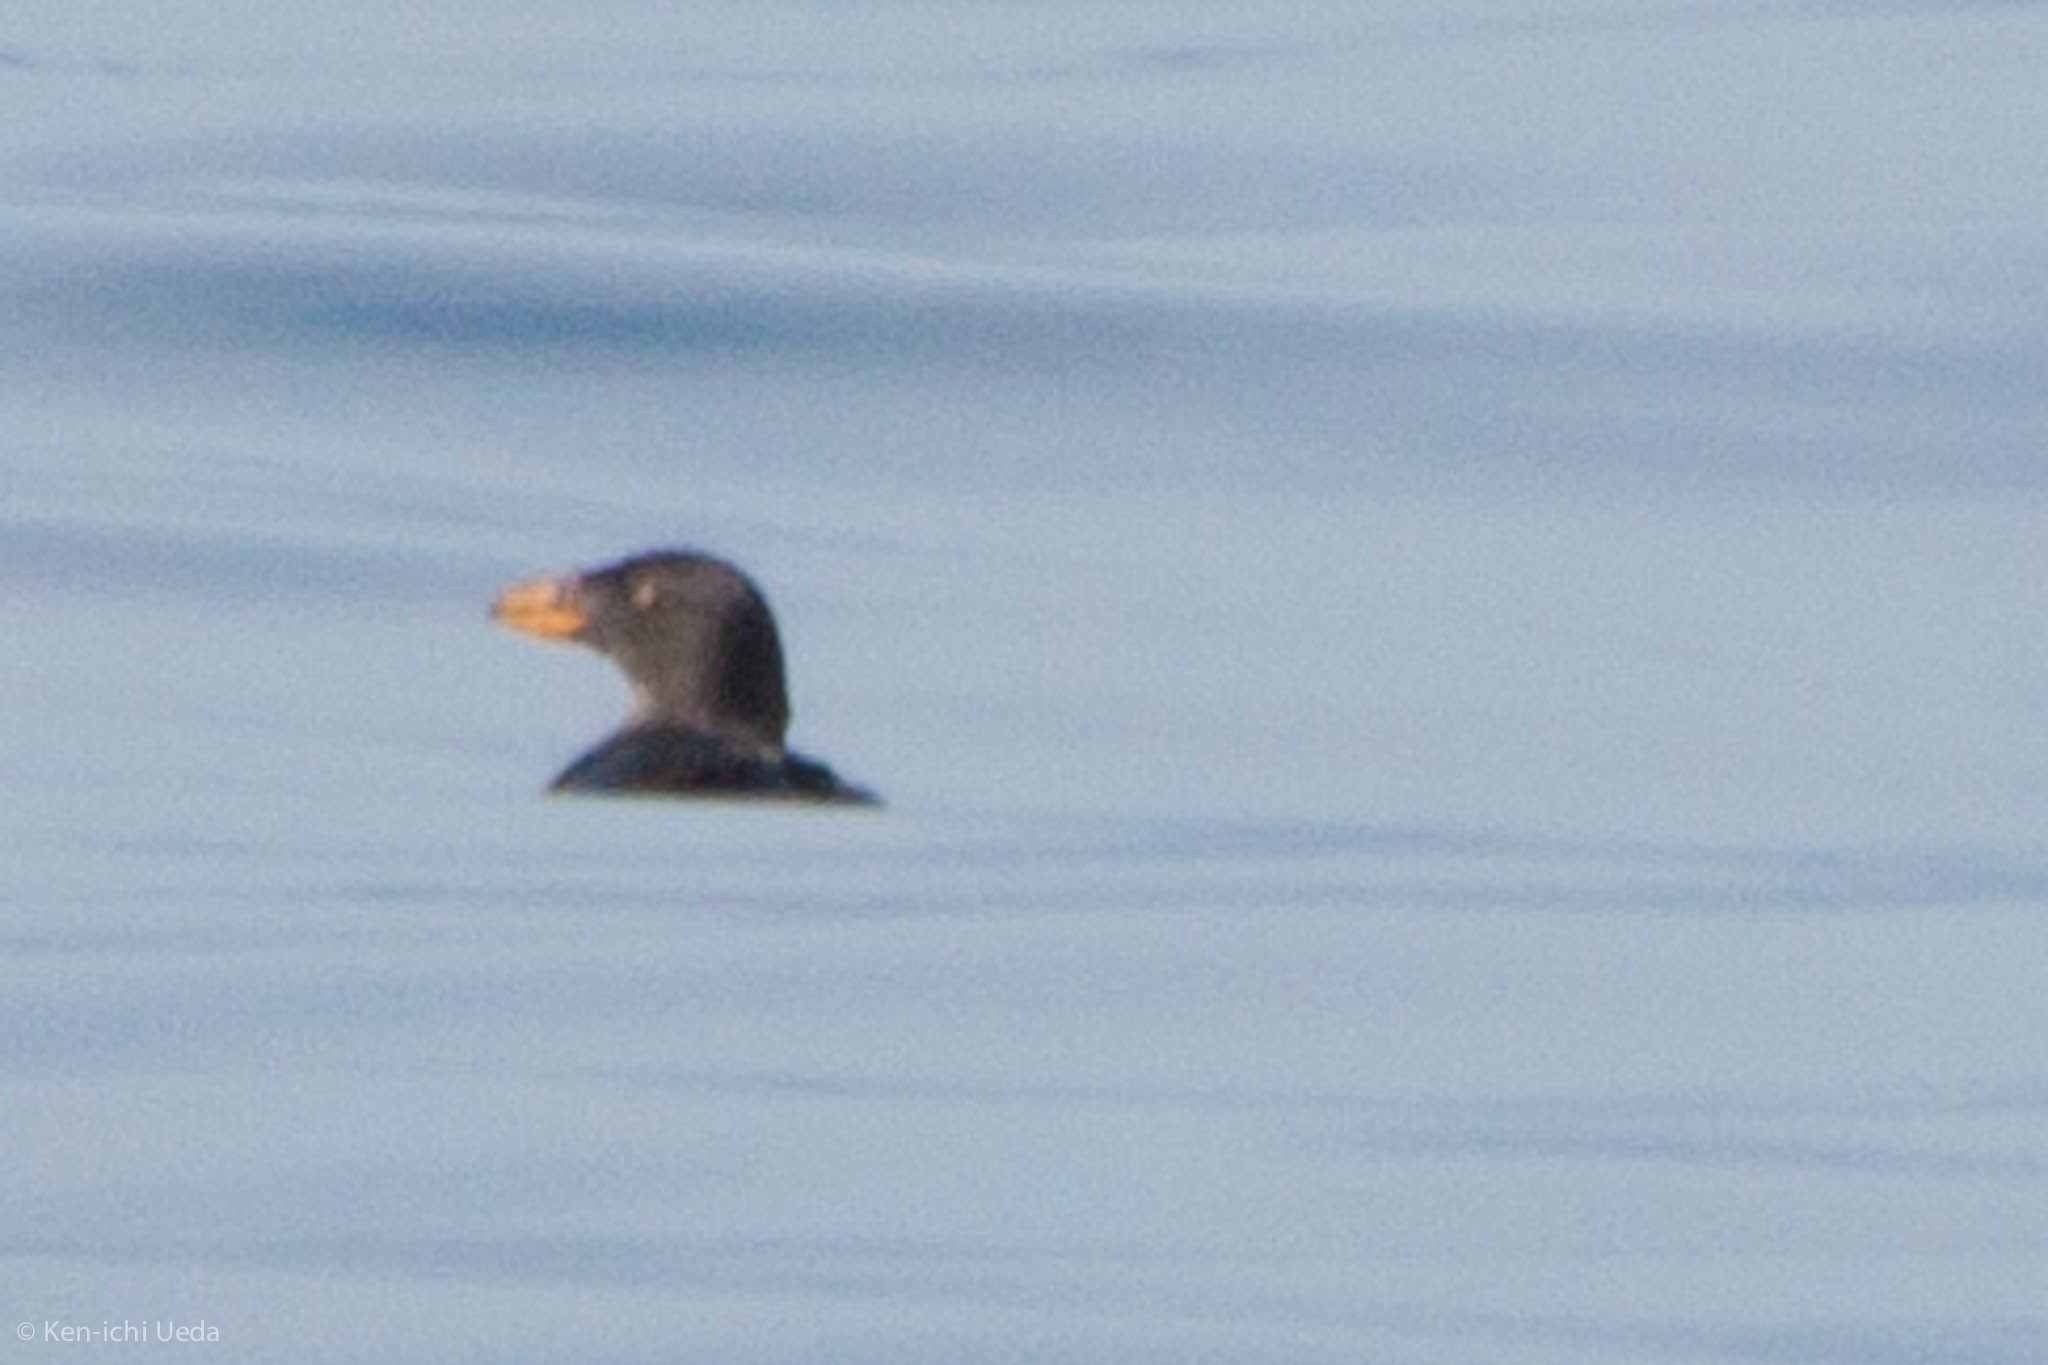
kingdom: Animalia
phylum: Chordata
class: Aves
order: Charadriiformes
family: Alcidae
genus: Cerorhinca
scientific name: Cerorhinca monocerata
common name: Rhinoceros auklet
